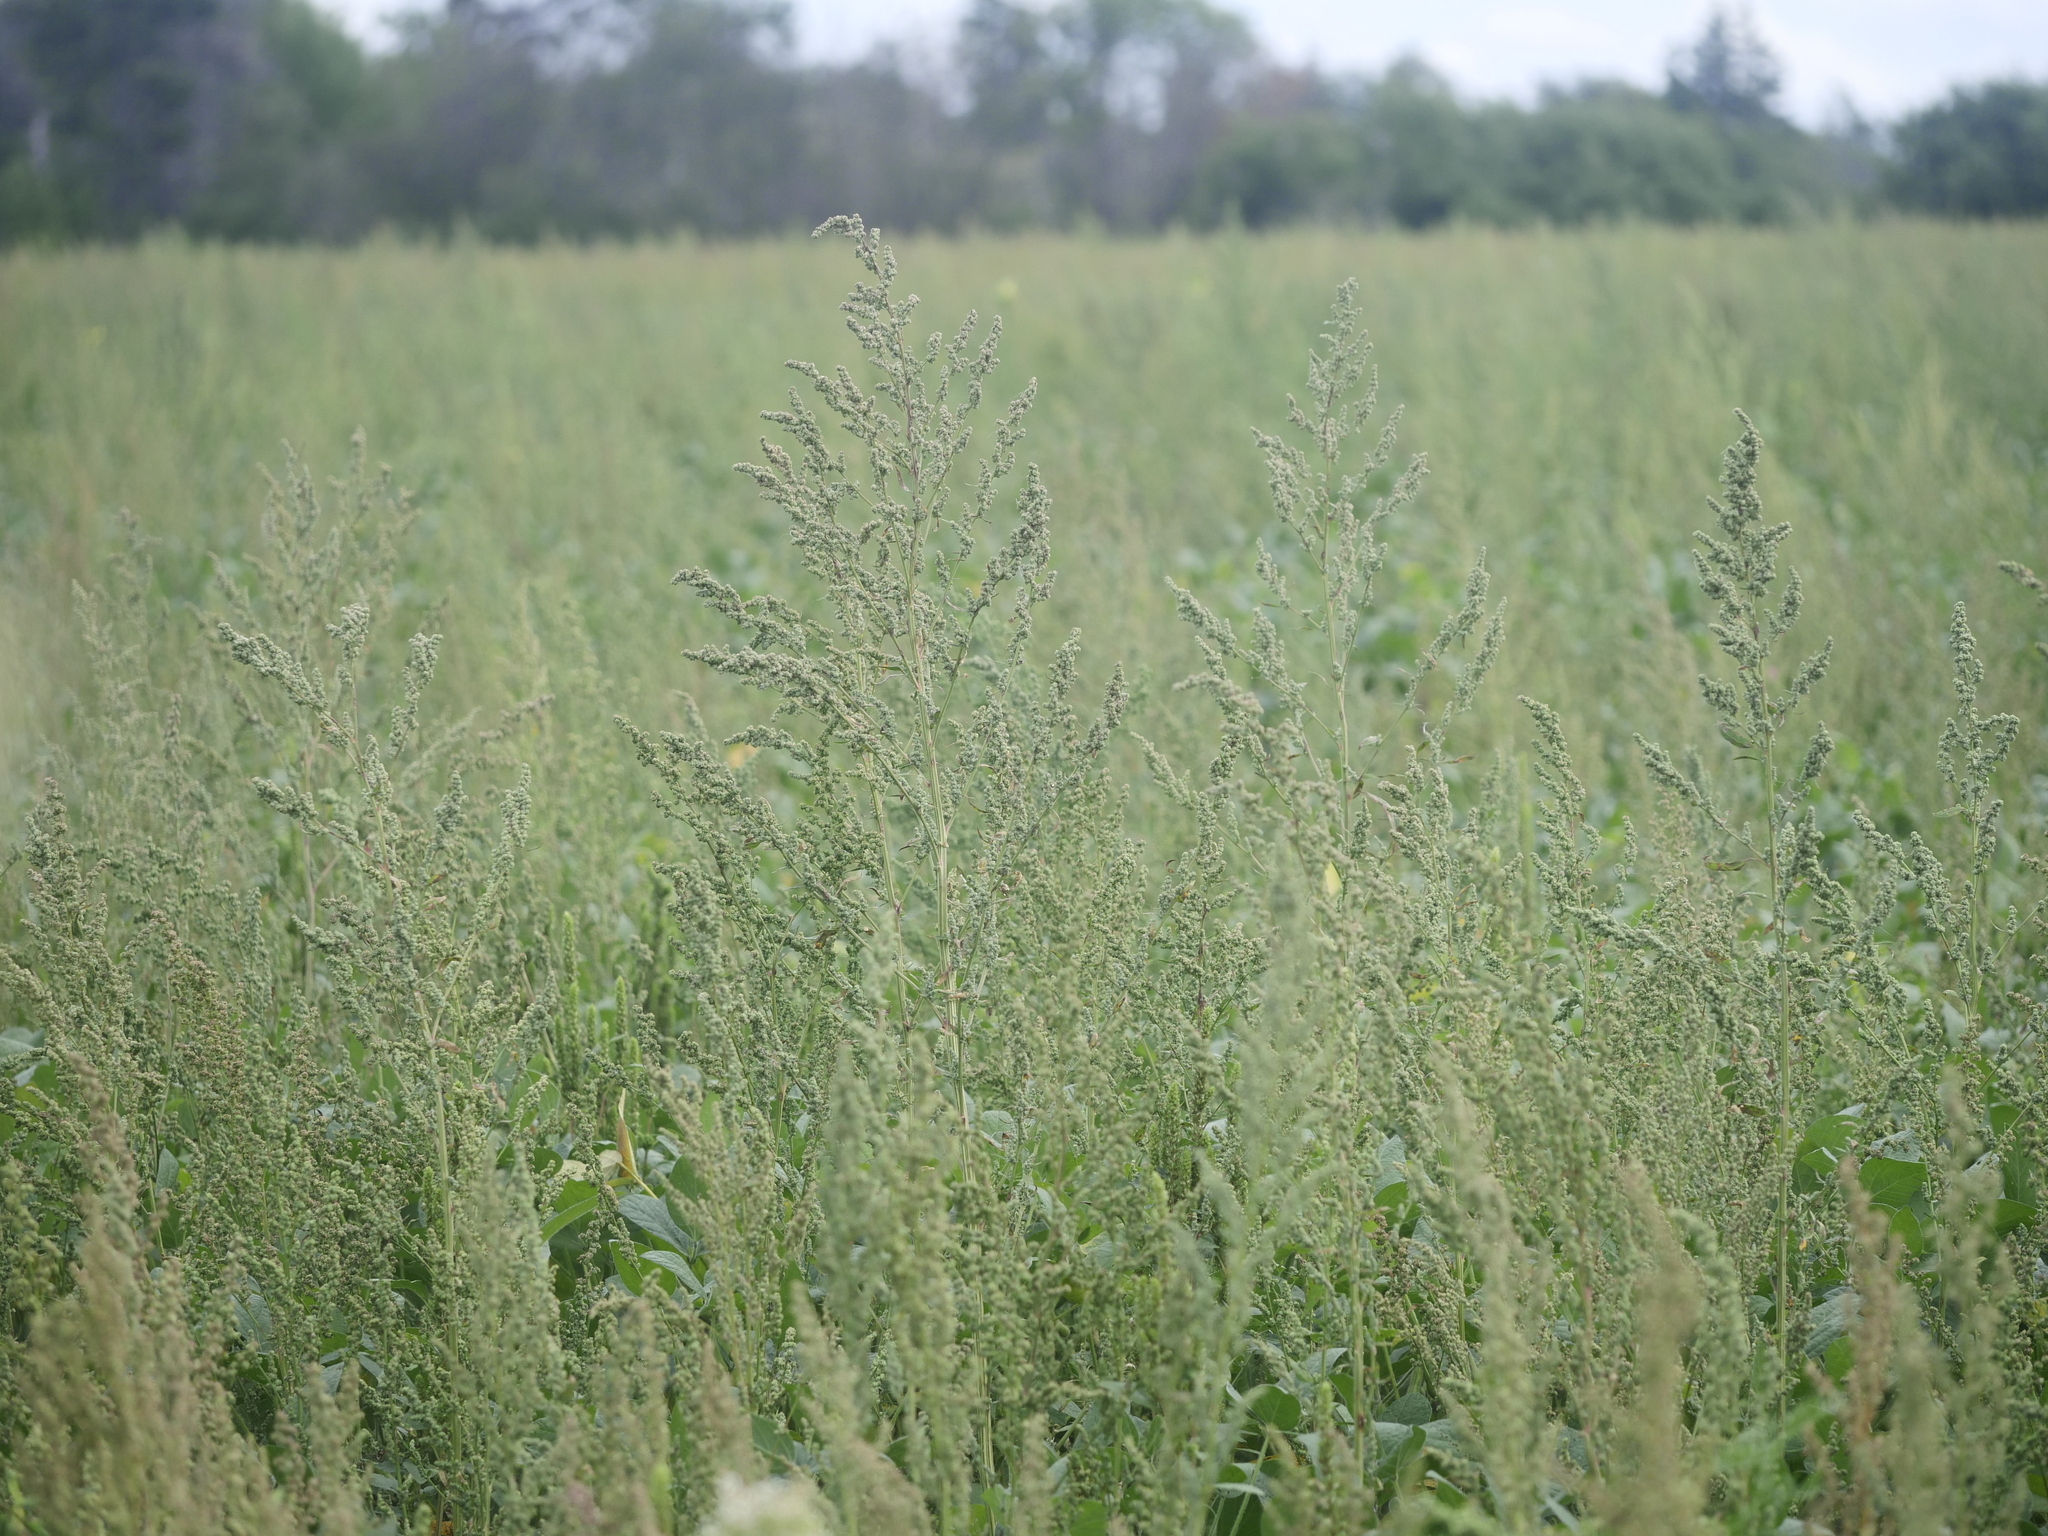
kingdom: Plantae
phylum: Tracheophyta
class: Magnoliopsida
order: Asterales
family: Asteraceae
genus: Artemisia
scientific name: Artemisia absinthium
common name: Wormwood
